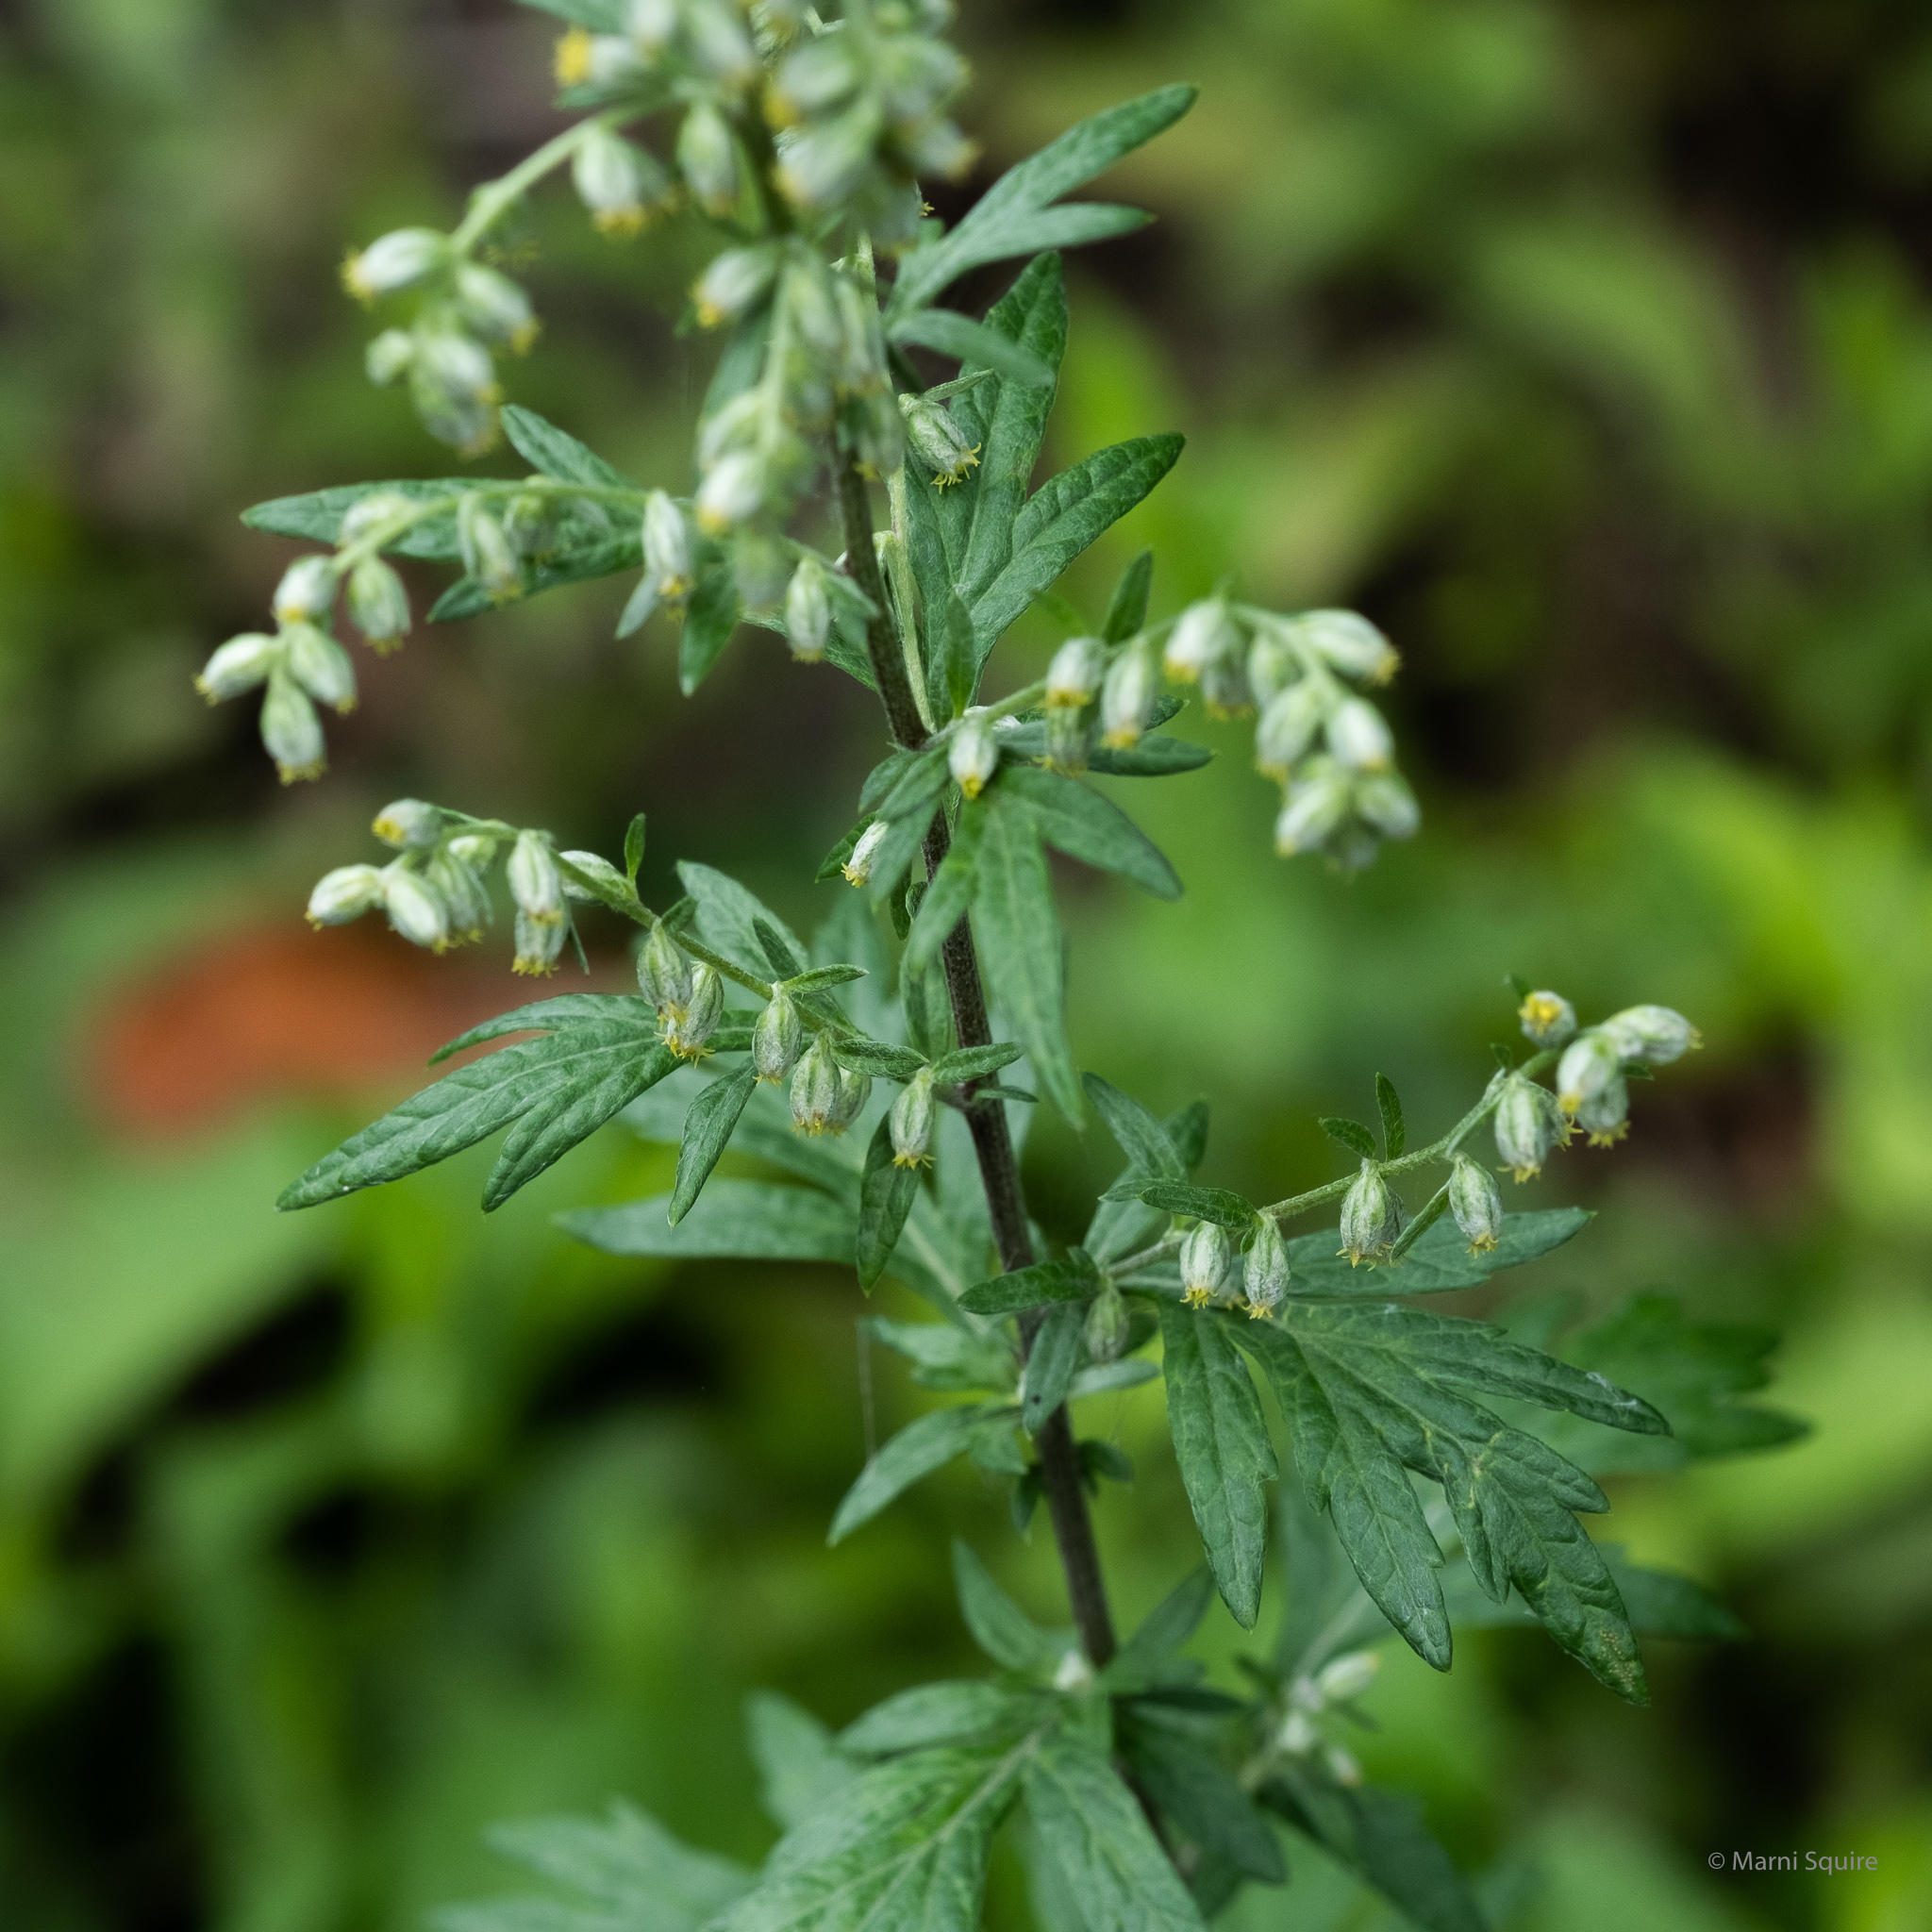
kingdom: Plantae
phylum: Tracheophyta
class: Magnoliopsida
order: Asterales
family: Asteraceae
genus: Artemisia
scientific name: Artemisia vulgaris
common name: Mugwort
